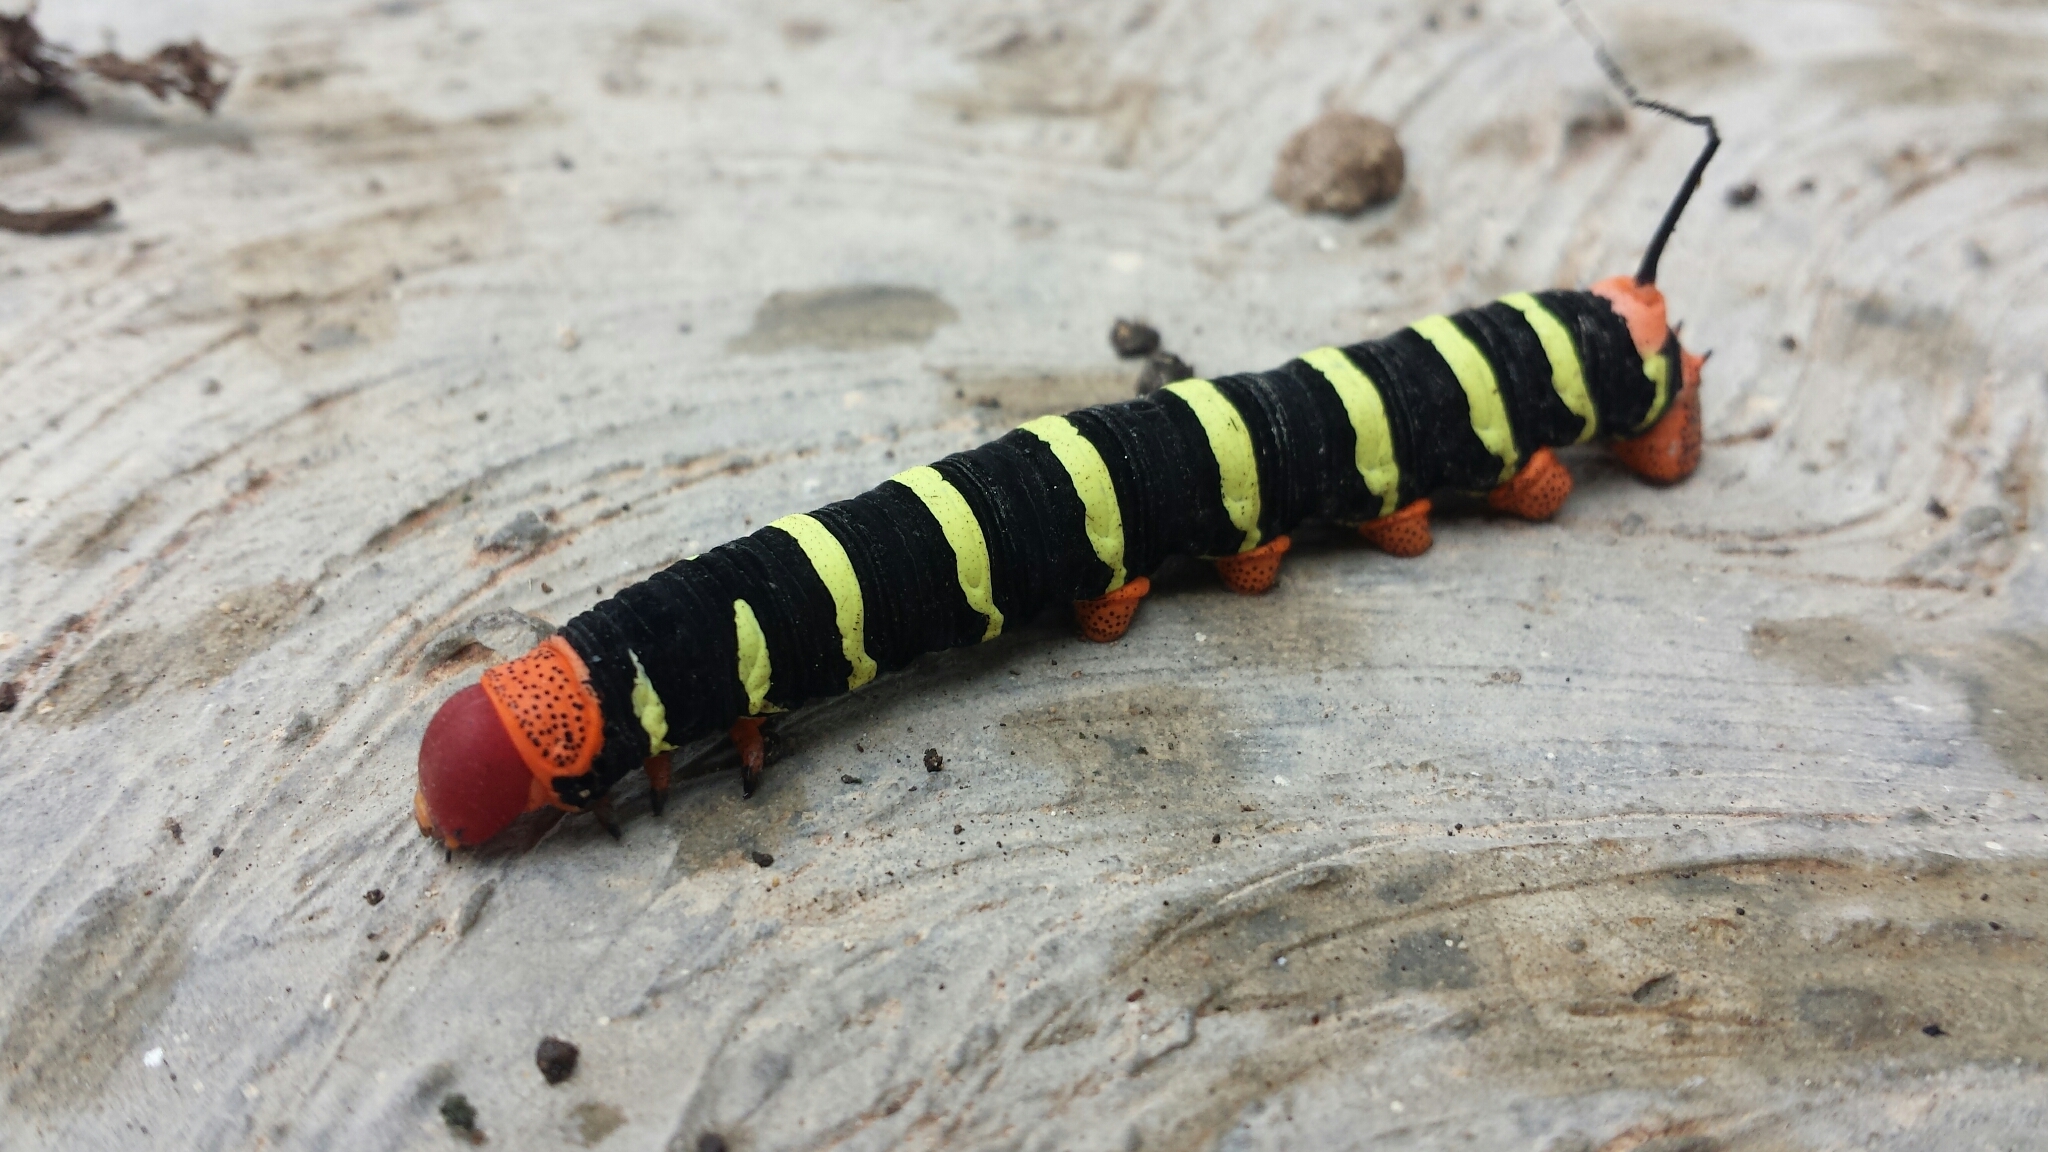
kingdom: Animalia
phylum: Arthropoda
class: Insecta
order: Lepidoptera
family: Sphingidae
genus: Pseudosphinx
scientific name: Pseudosphinx tetrio
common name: Tetrio sphinx
